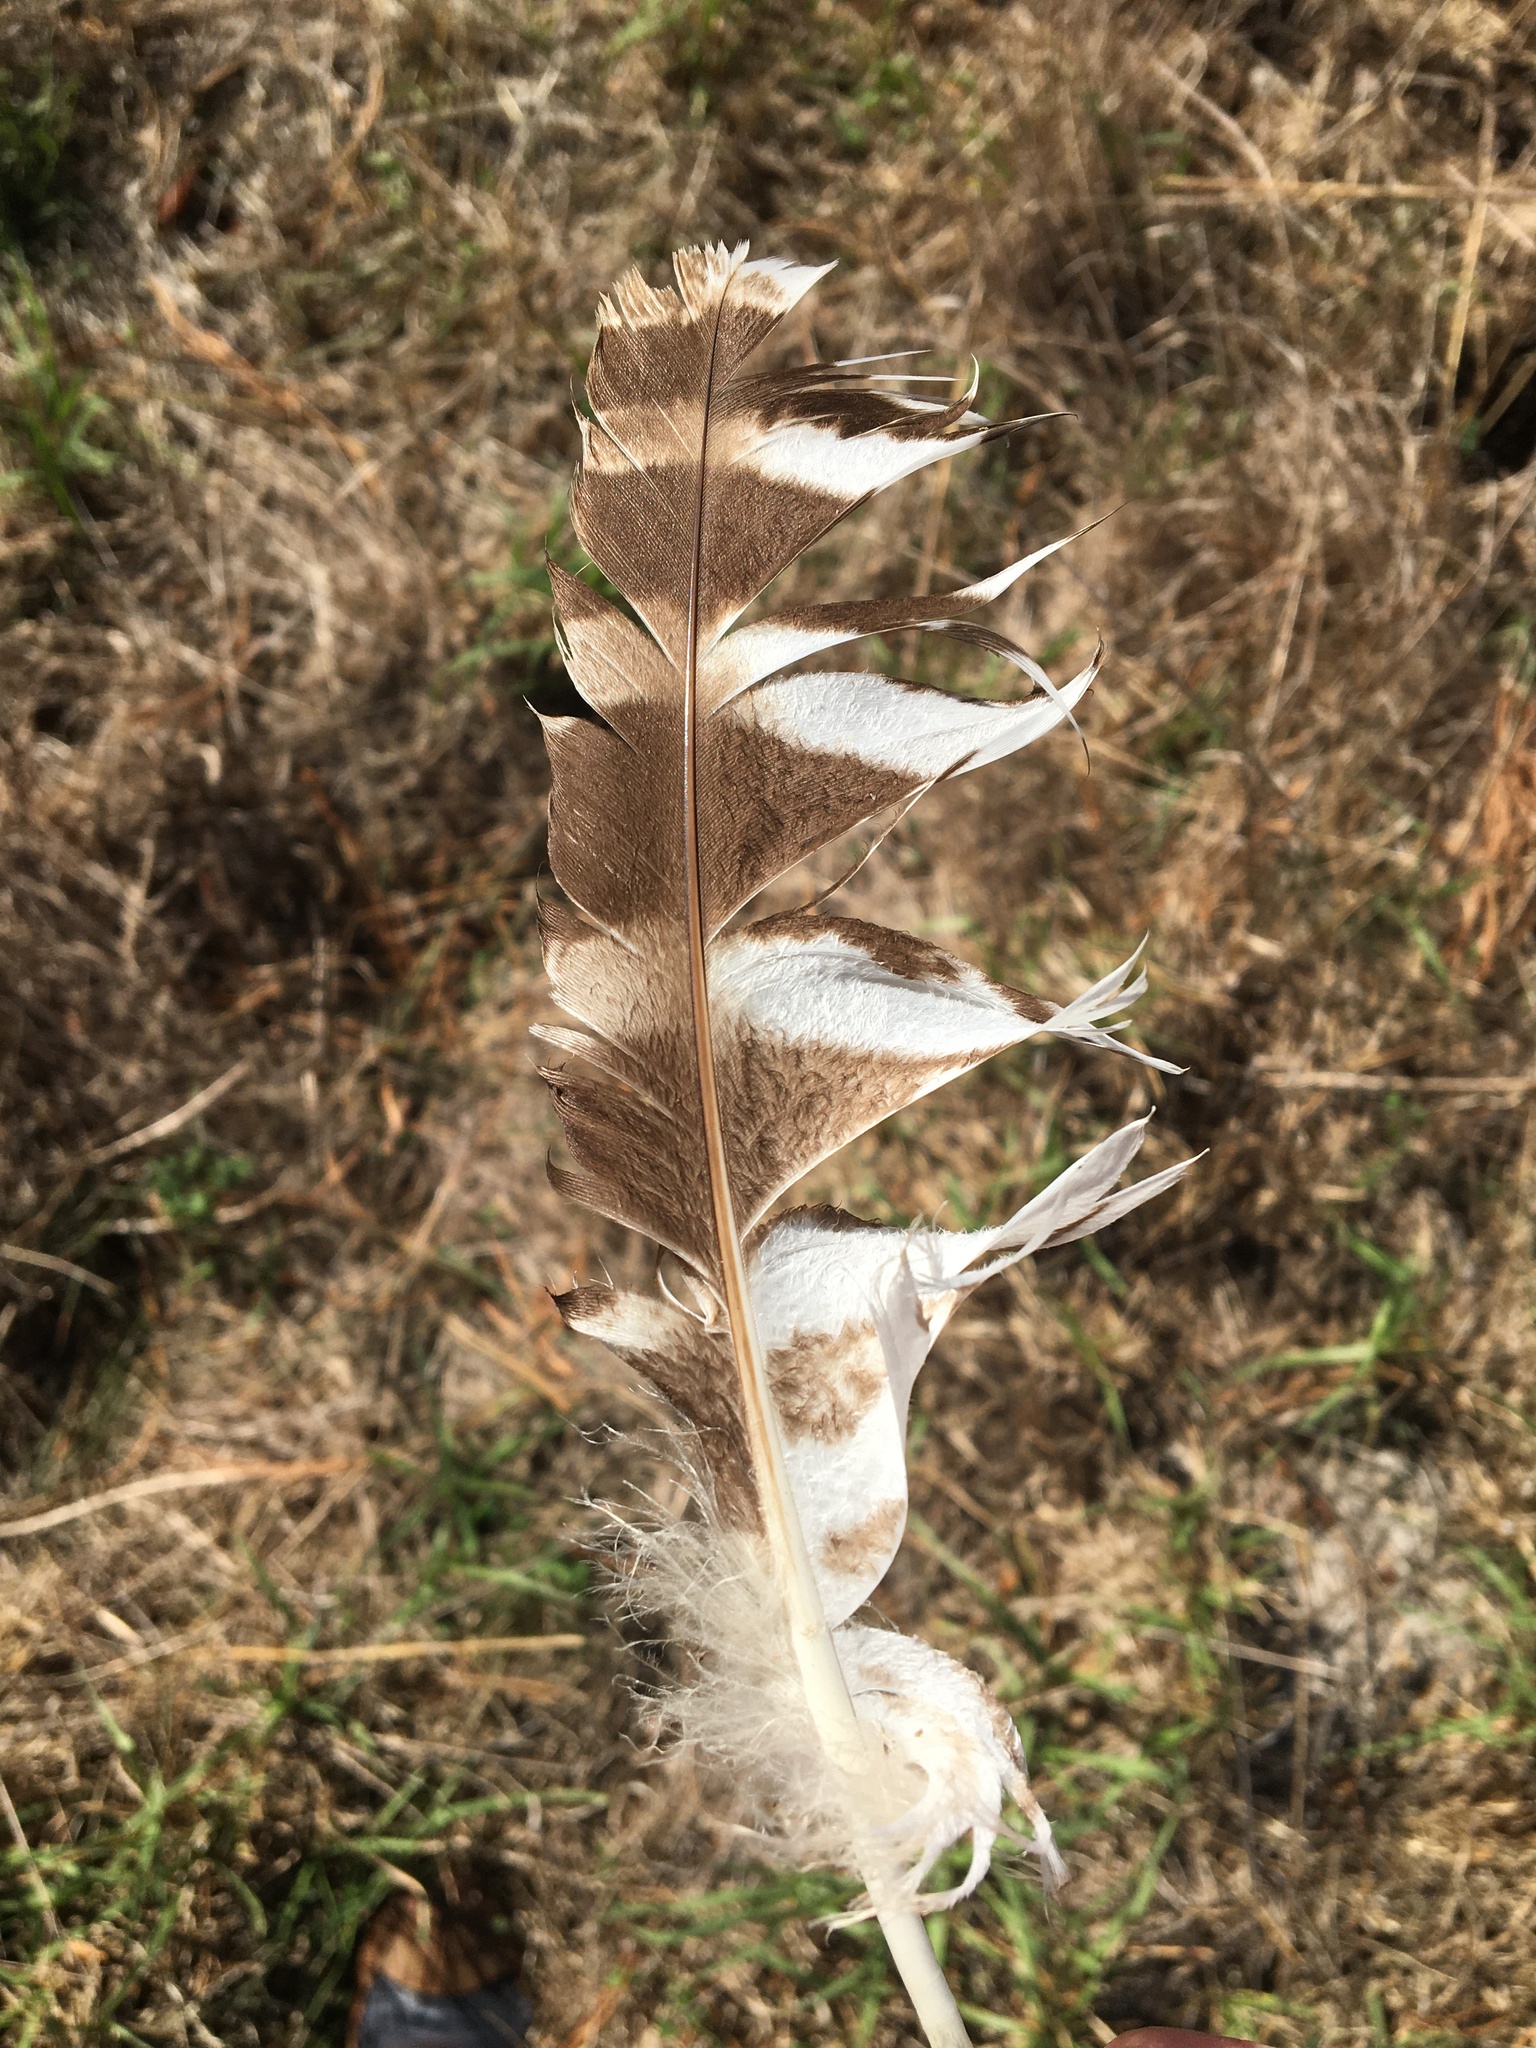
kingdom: Animalia
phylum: Chordata
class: Aves
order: Strigiformes
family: Strigidae
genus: Bubo
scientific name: Bubo africanus
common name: Spotted eagle-owl
